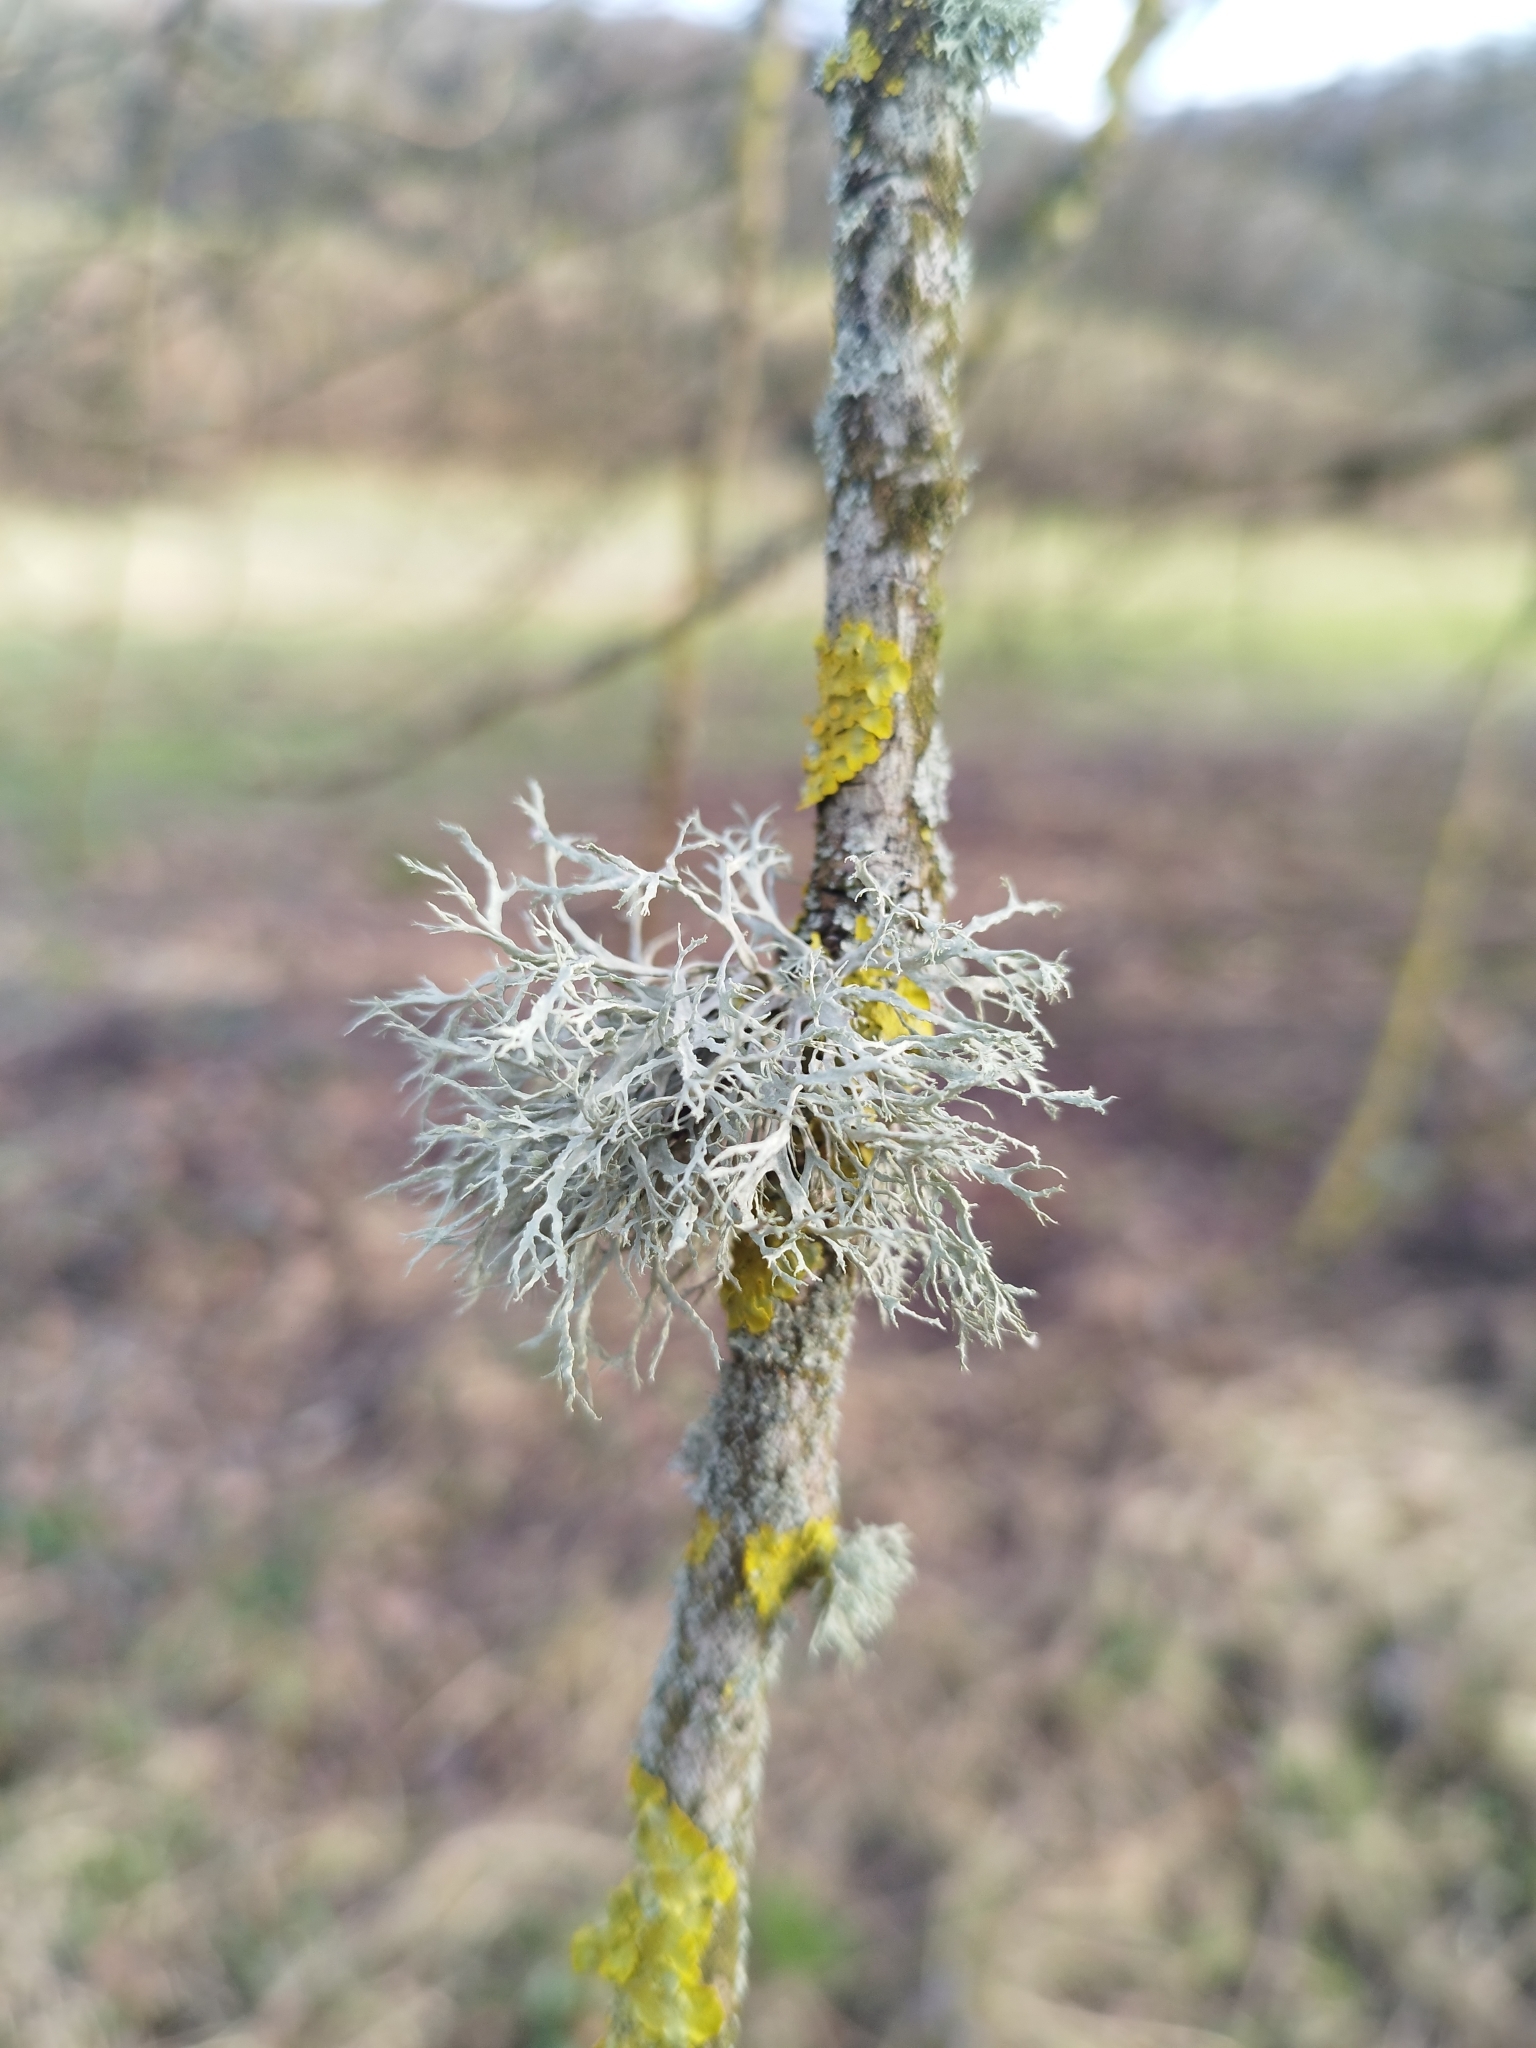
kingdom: Fungi
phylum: Ascomycota
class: Lecanoromycetes
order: Lecanorales
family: Ramalinaceae
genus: Ramalina
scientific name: Ramalina farinacea
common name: Farinose cartilage lichen
